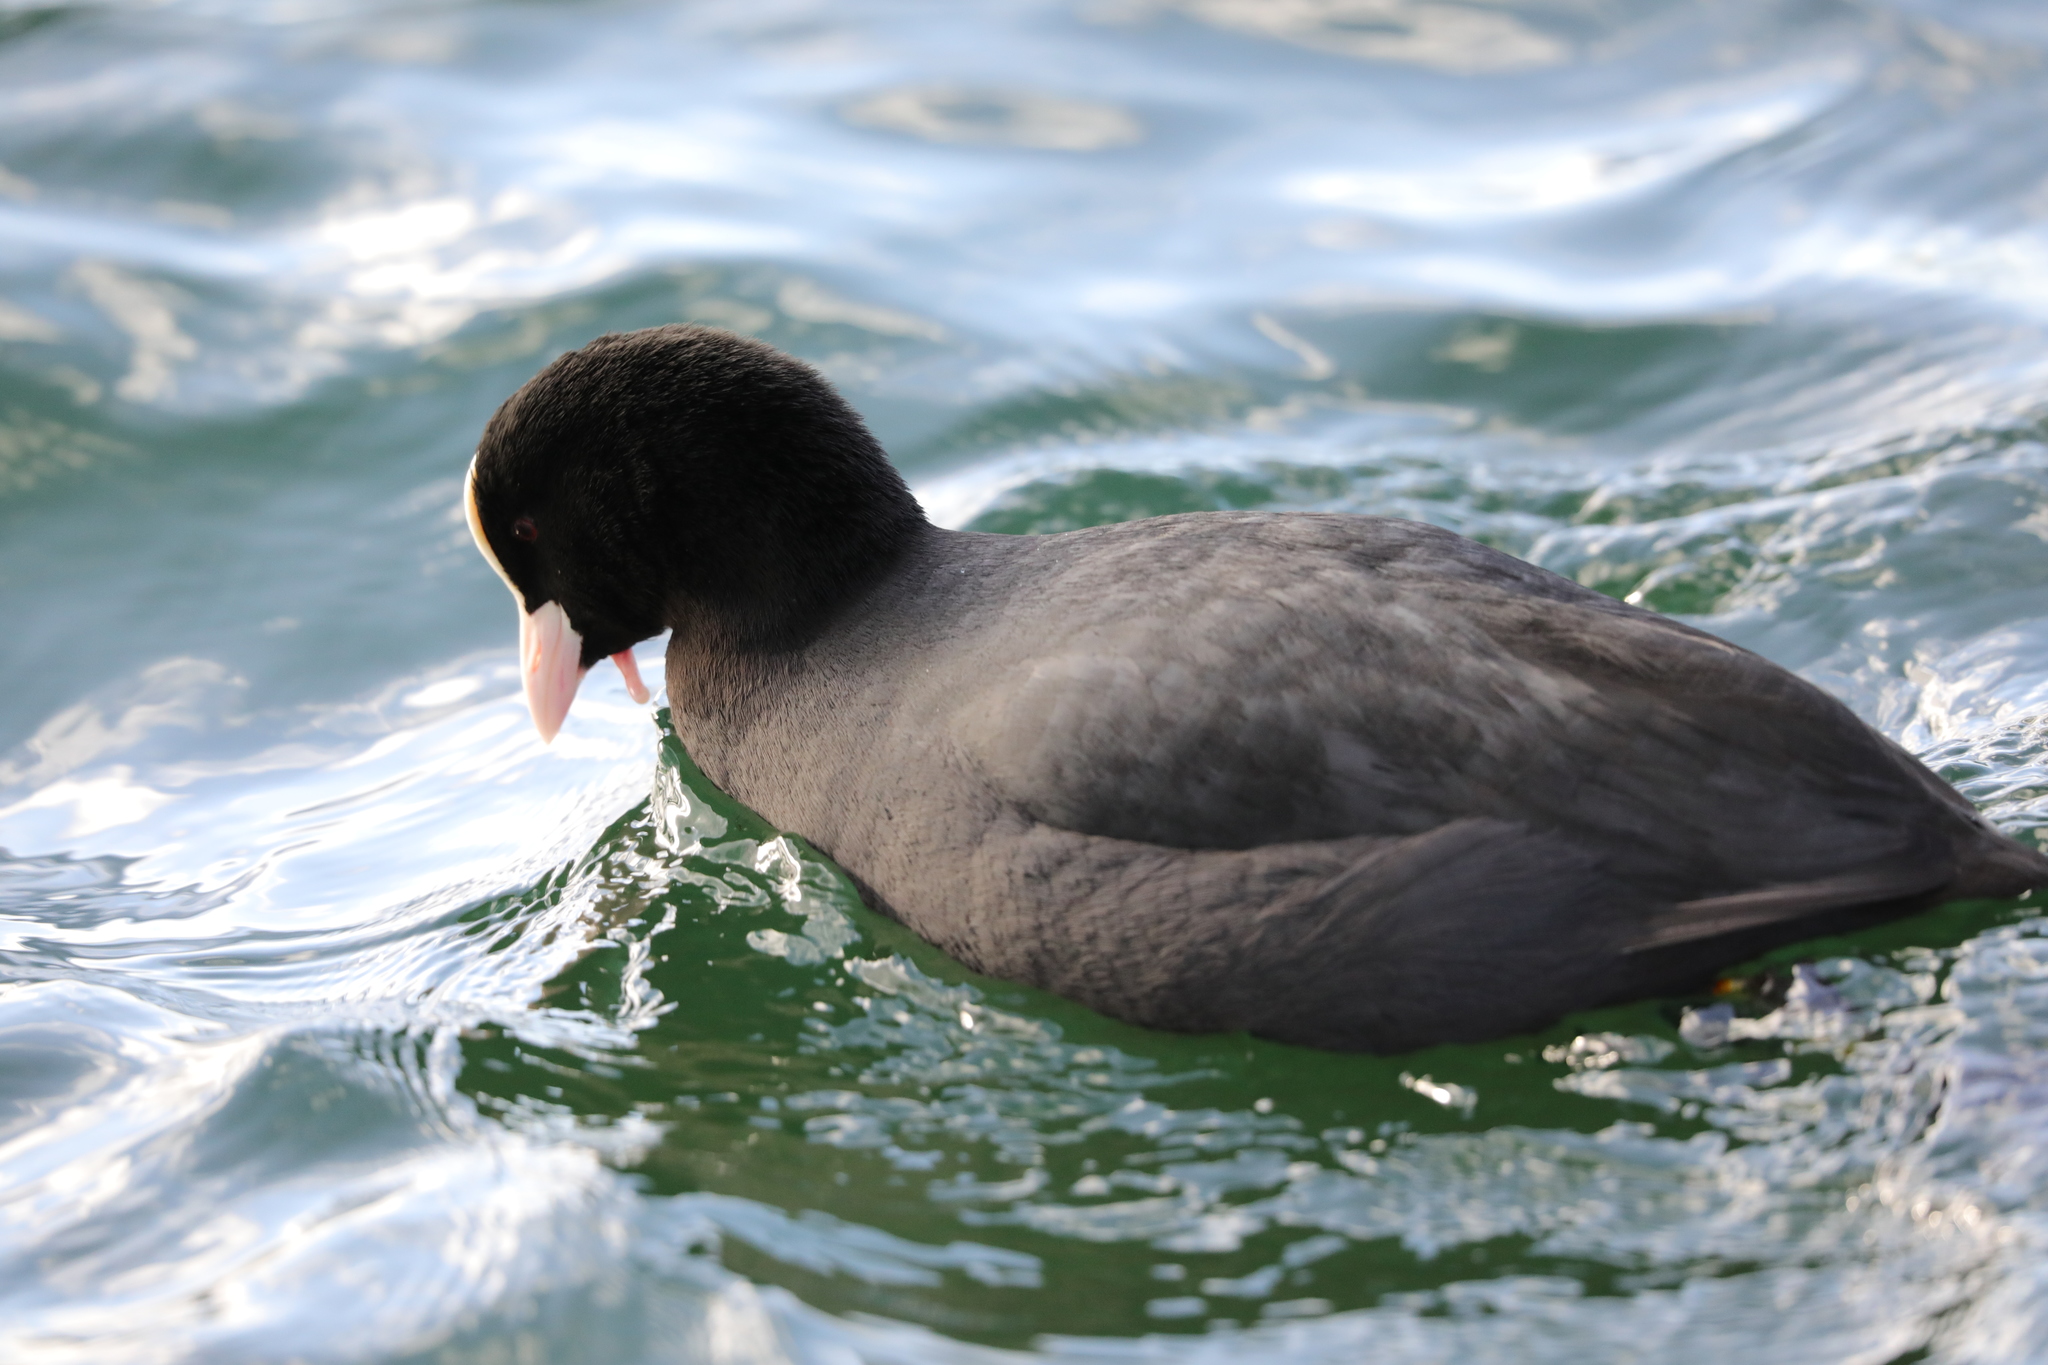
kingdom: Animalia
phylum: Chordata
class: Aves
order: Gruiformes
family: Rallidae
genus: Fulica
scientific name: Fulica atra
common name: Eurasian coot
